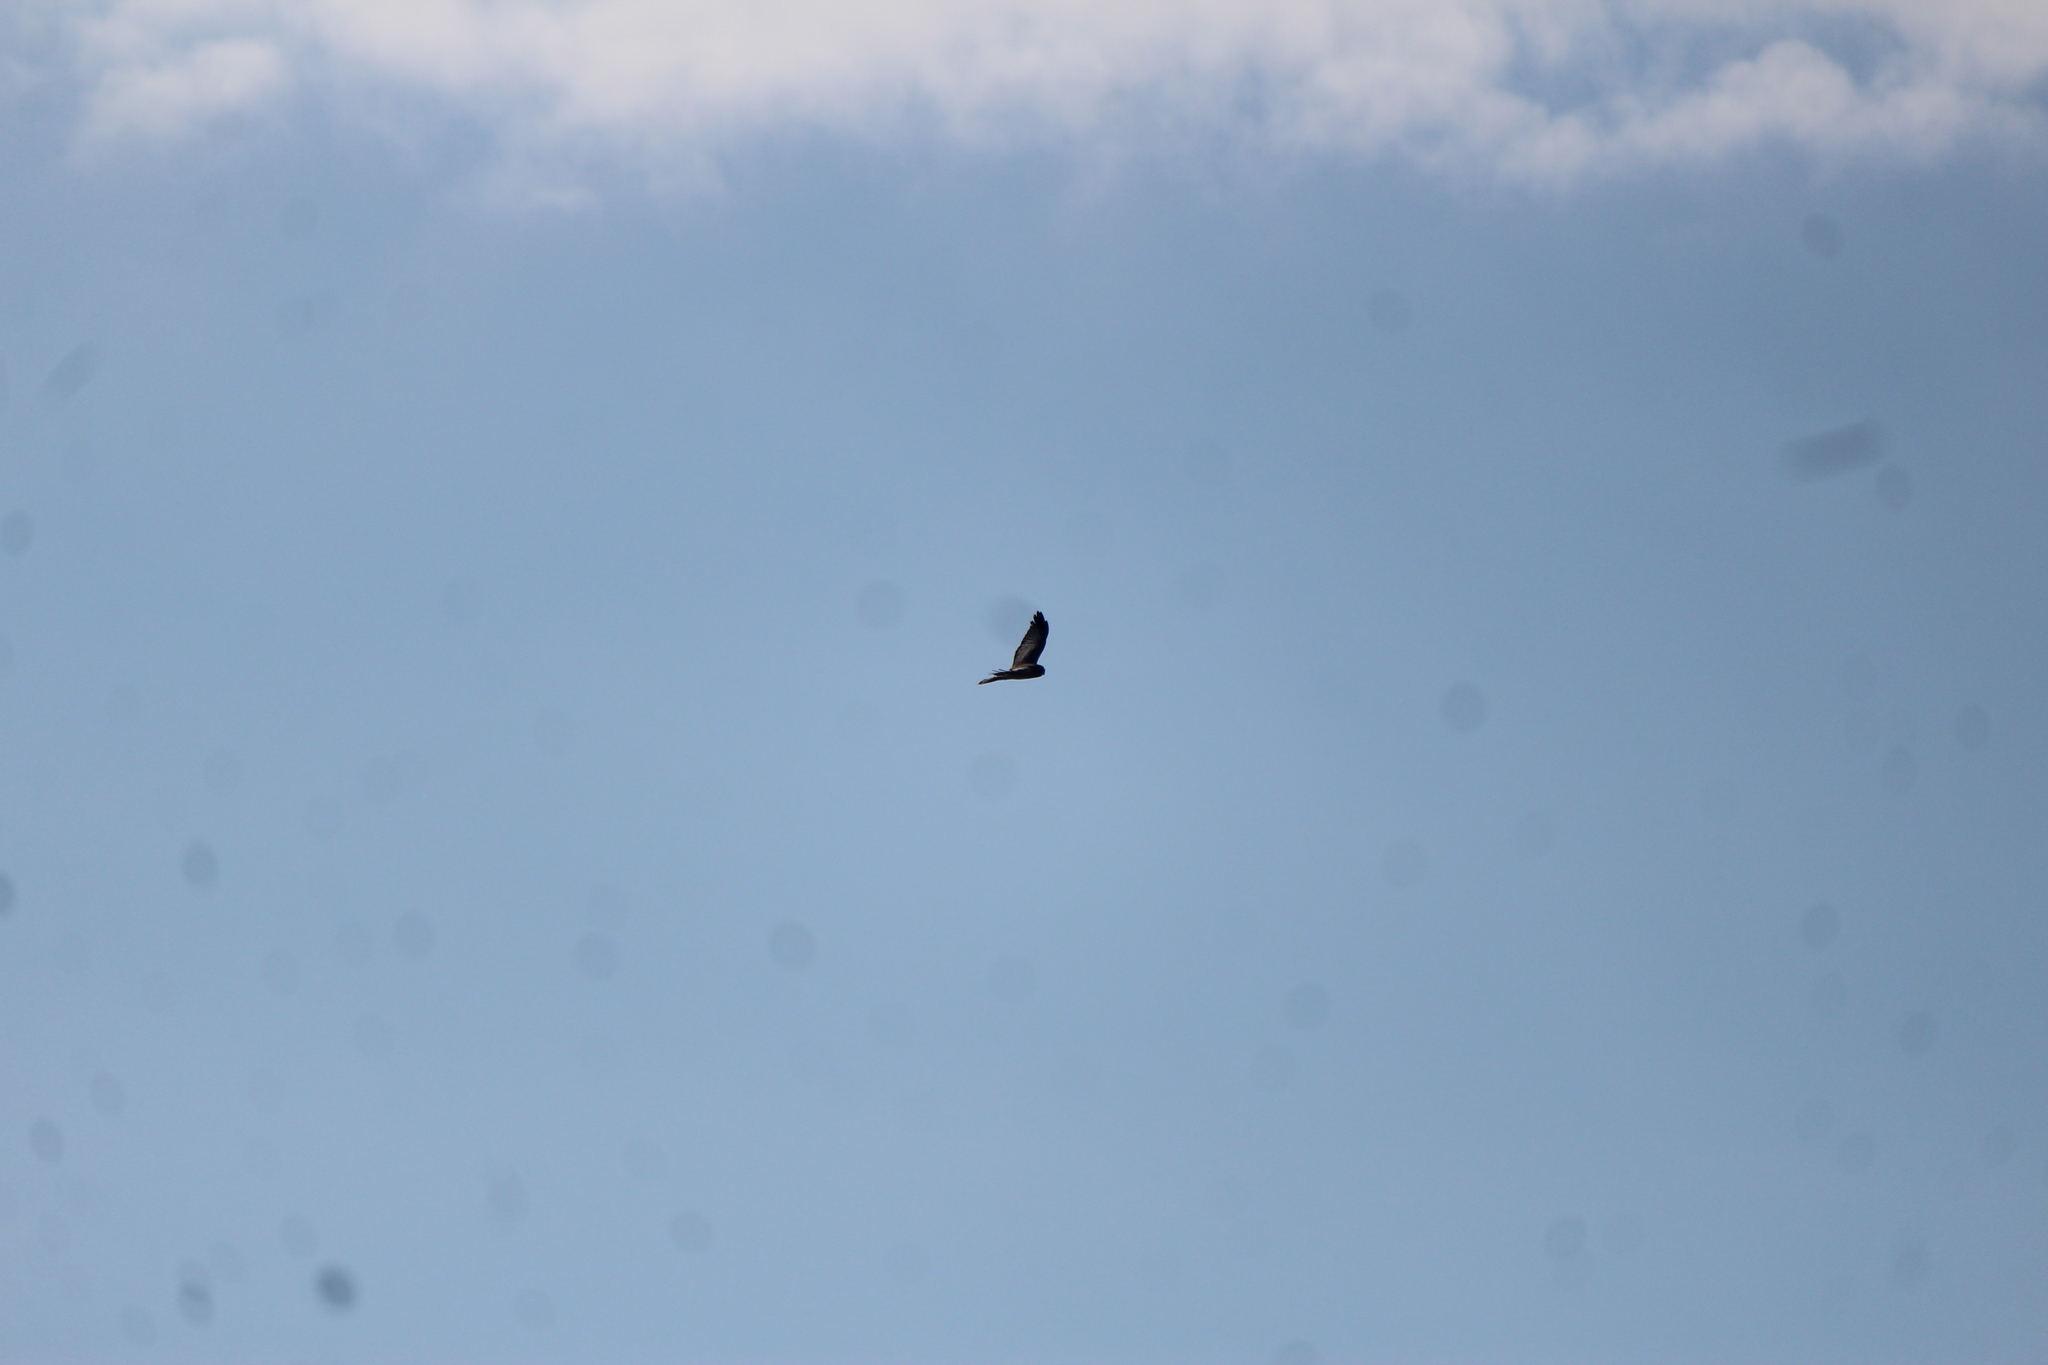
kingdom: Animalia
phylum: Chordata
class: Aves
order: Accipitriformes
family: Accipitridae
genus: Circus
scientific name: Circus cyaneus
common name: Hen harrier
